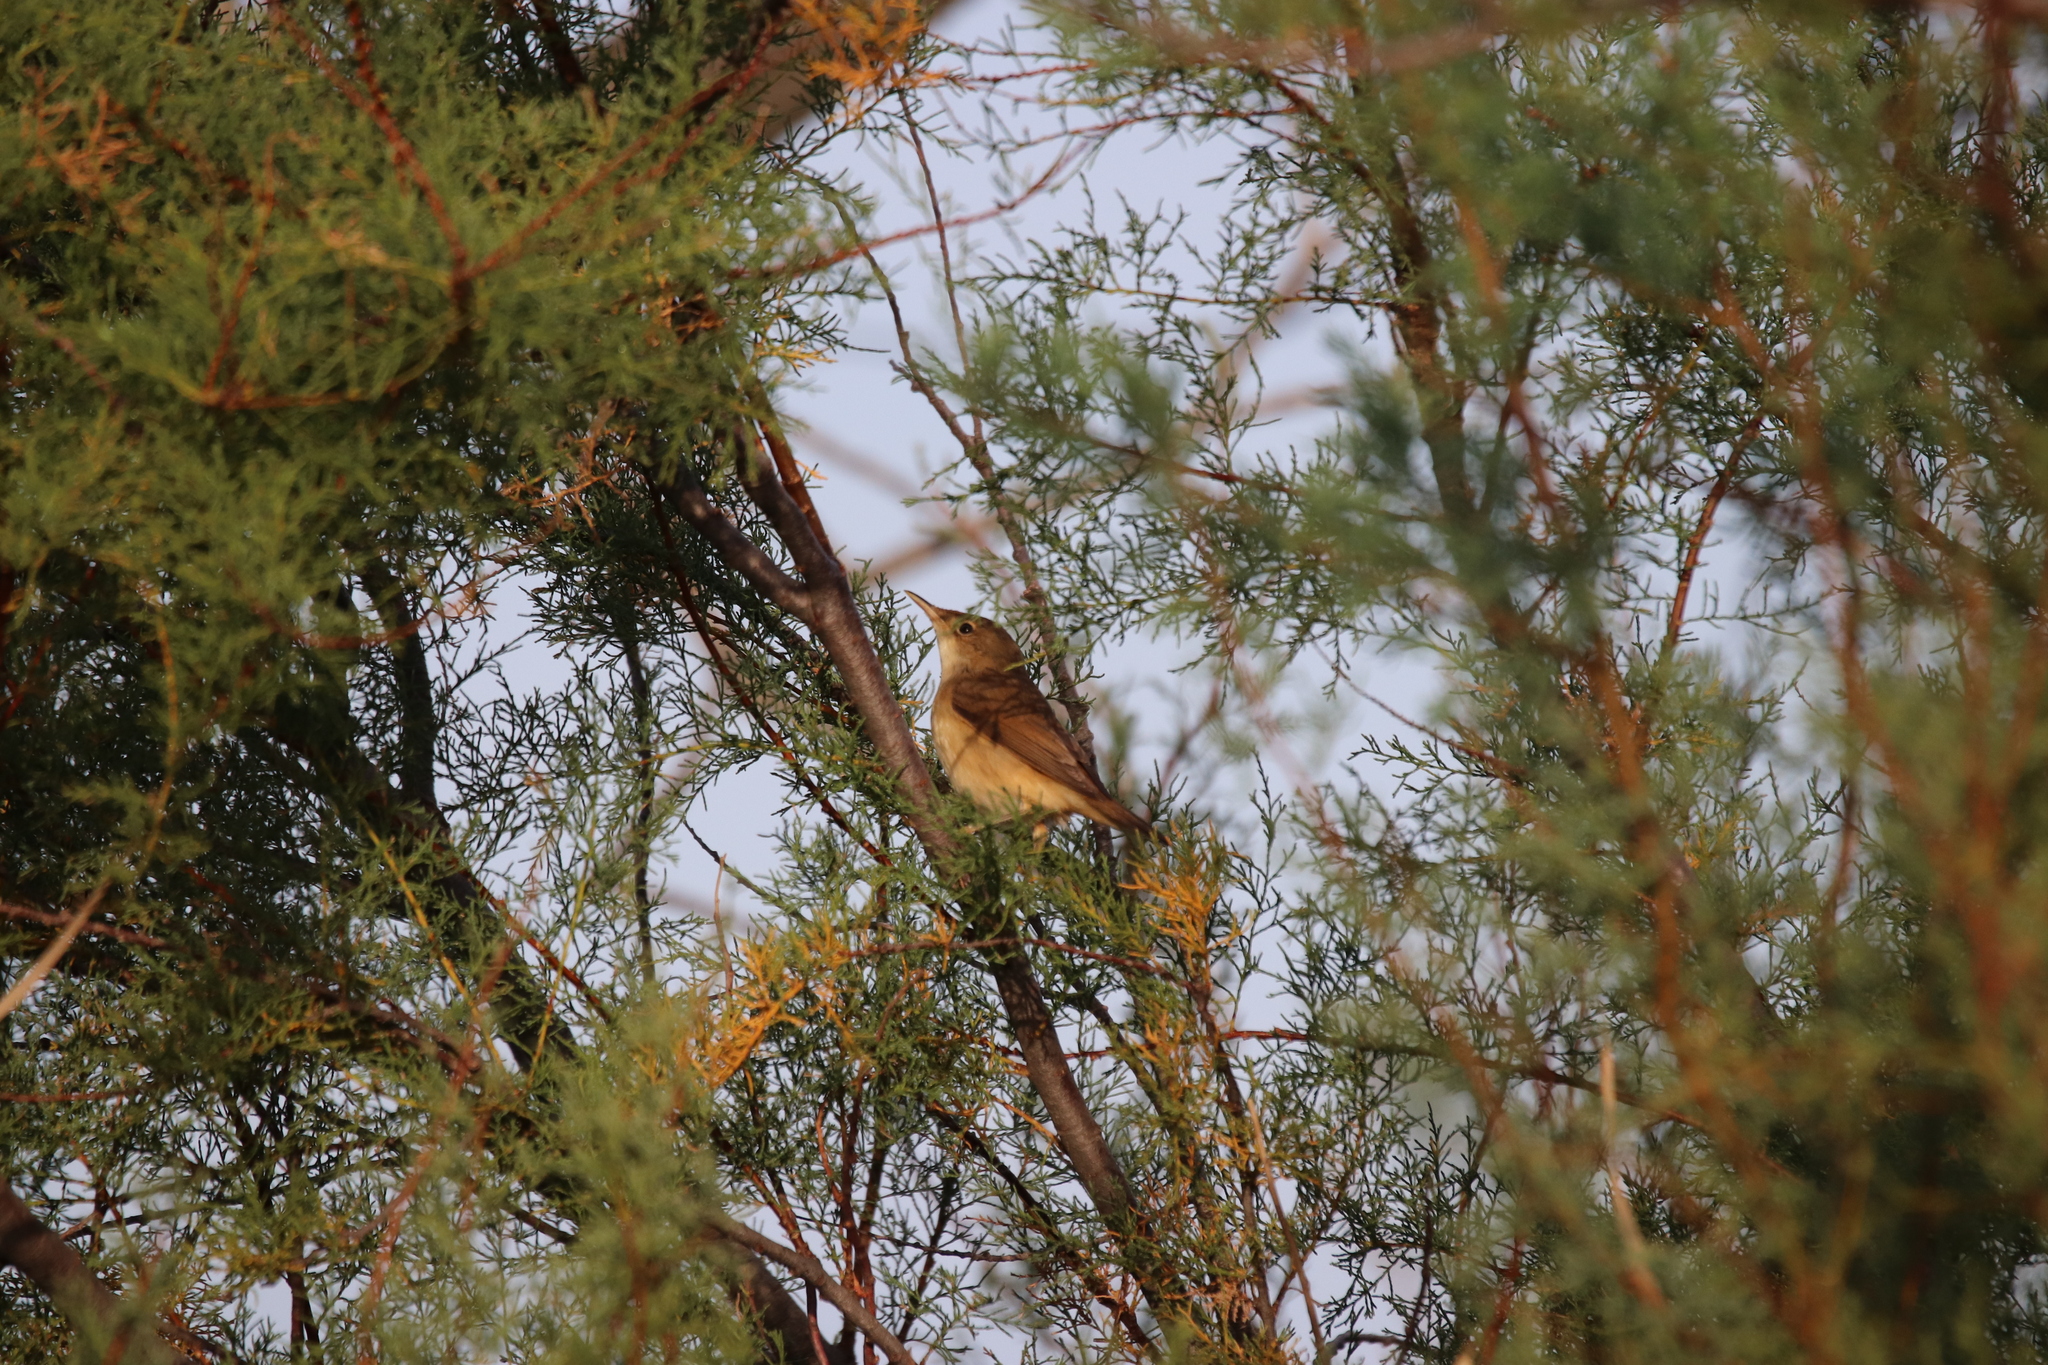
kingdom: Animalia
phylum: Chordata
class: Aves
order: Passeriformes
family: Acrocephalidae
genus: Acrocephalus
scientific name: Acrocephalus scirpaceus
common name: Eurasian reed warbler
